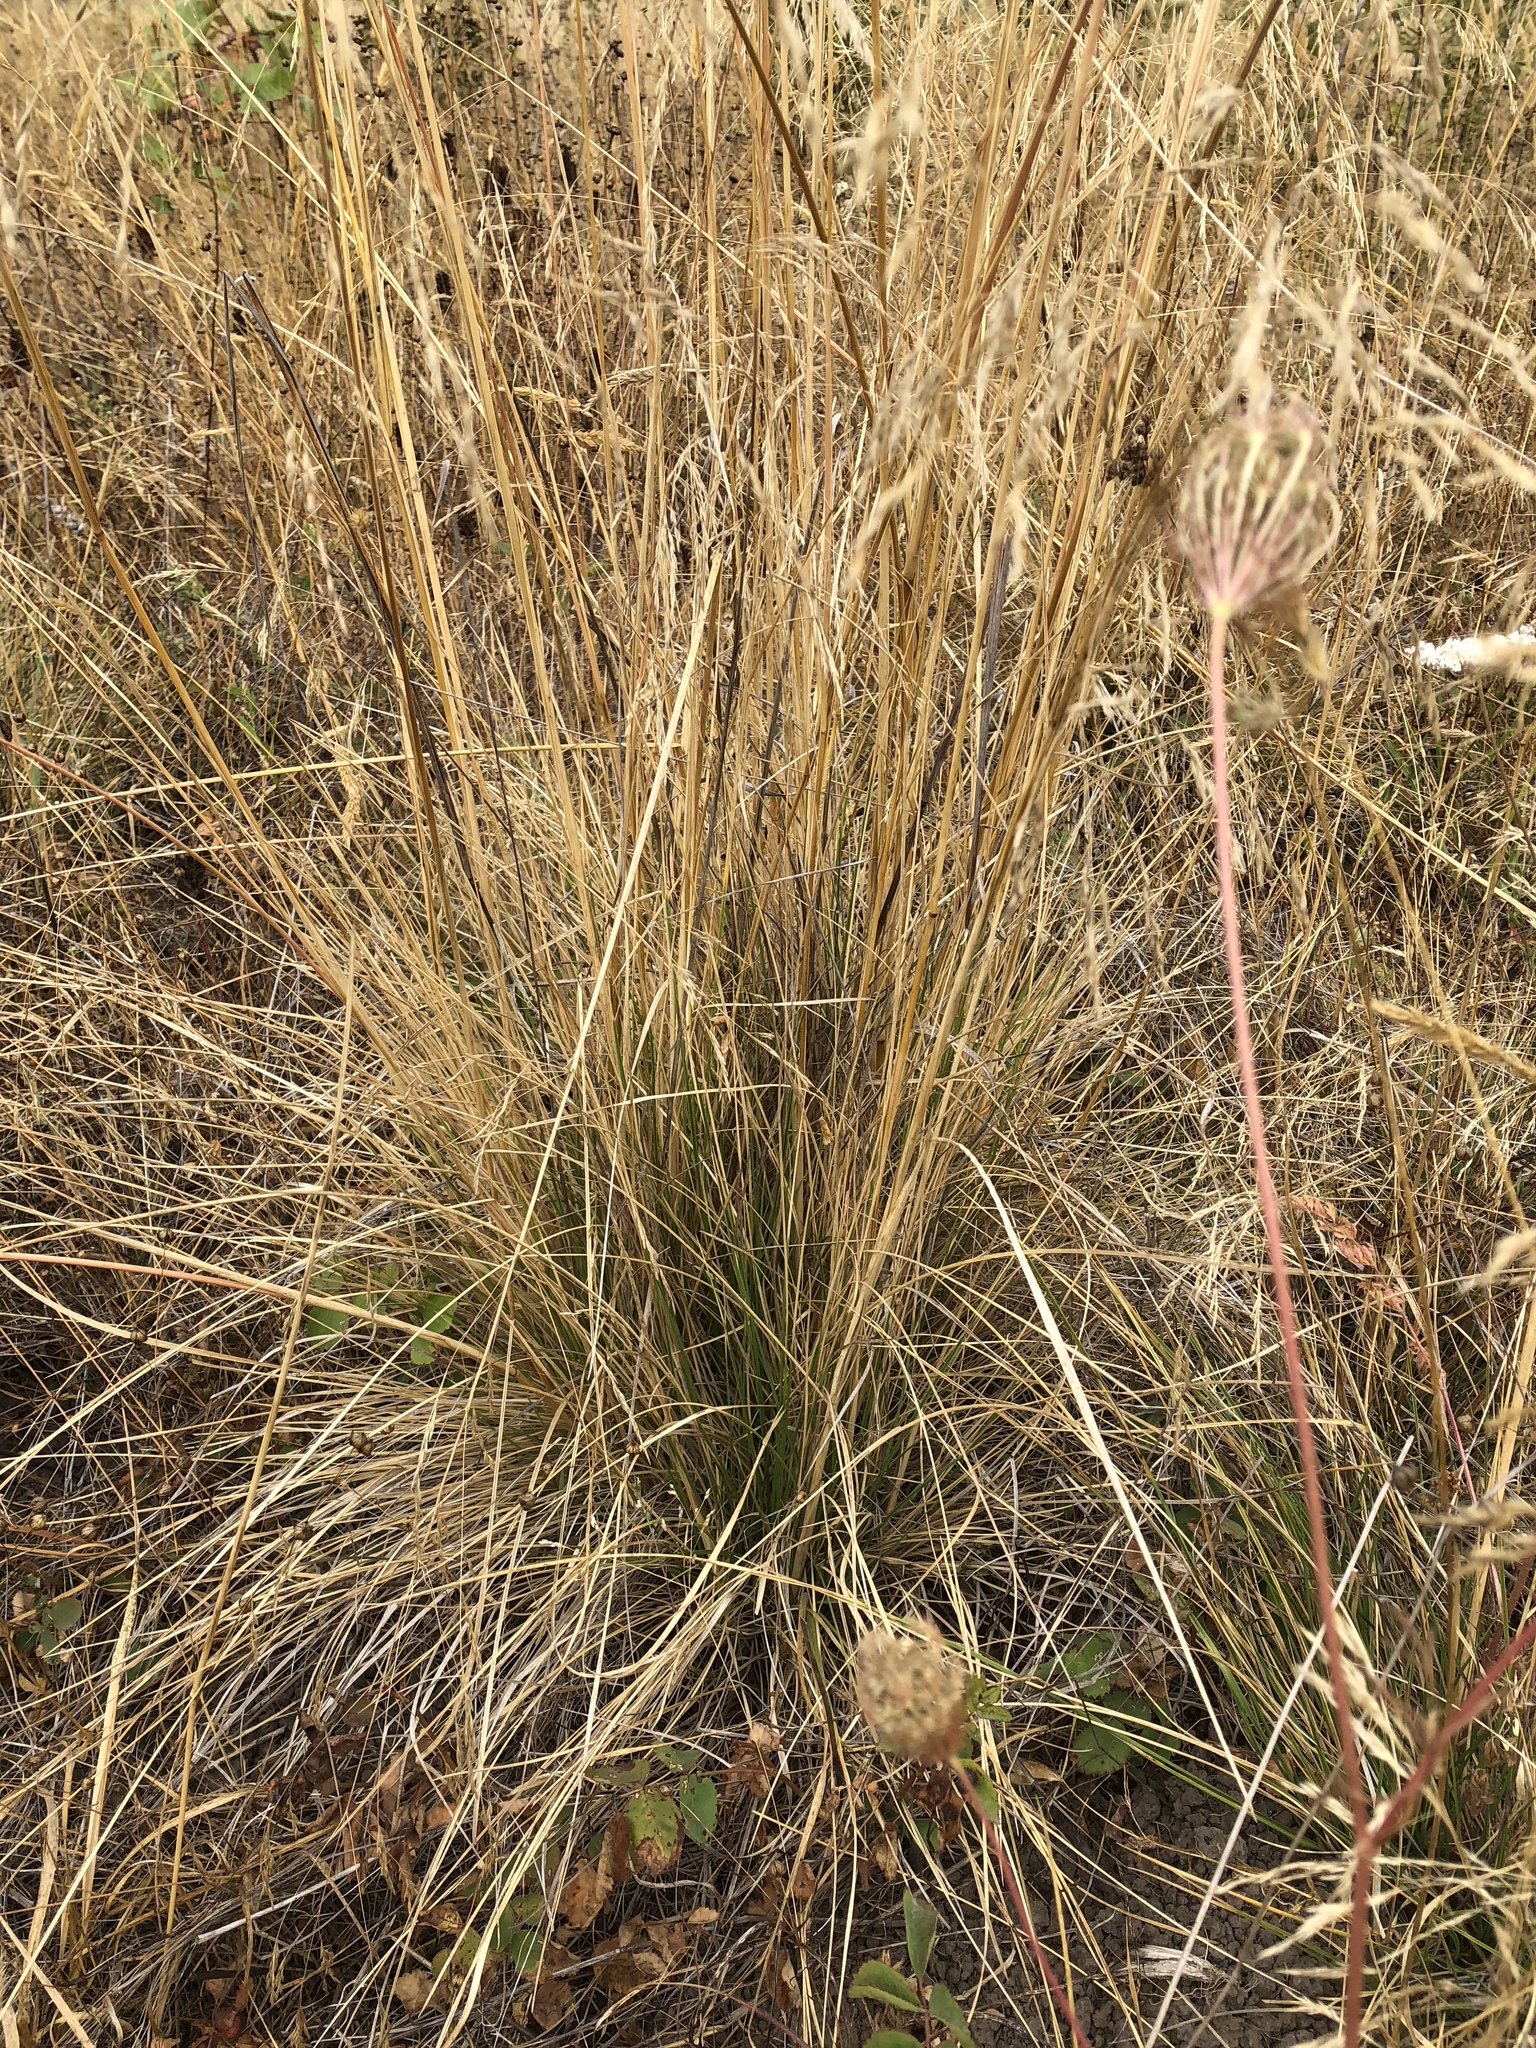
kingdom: Plantae
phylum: Tracheophyta
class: Liliopsida
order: Poales
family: Poaceae
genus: Deschampsia
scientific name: Deschampsia cespitosa
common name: Tufted hair-grass
